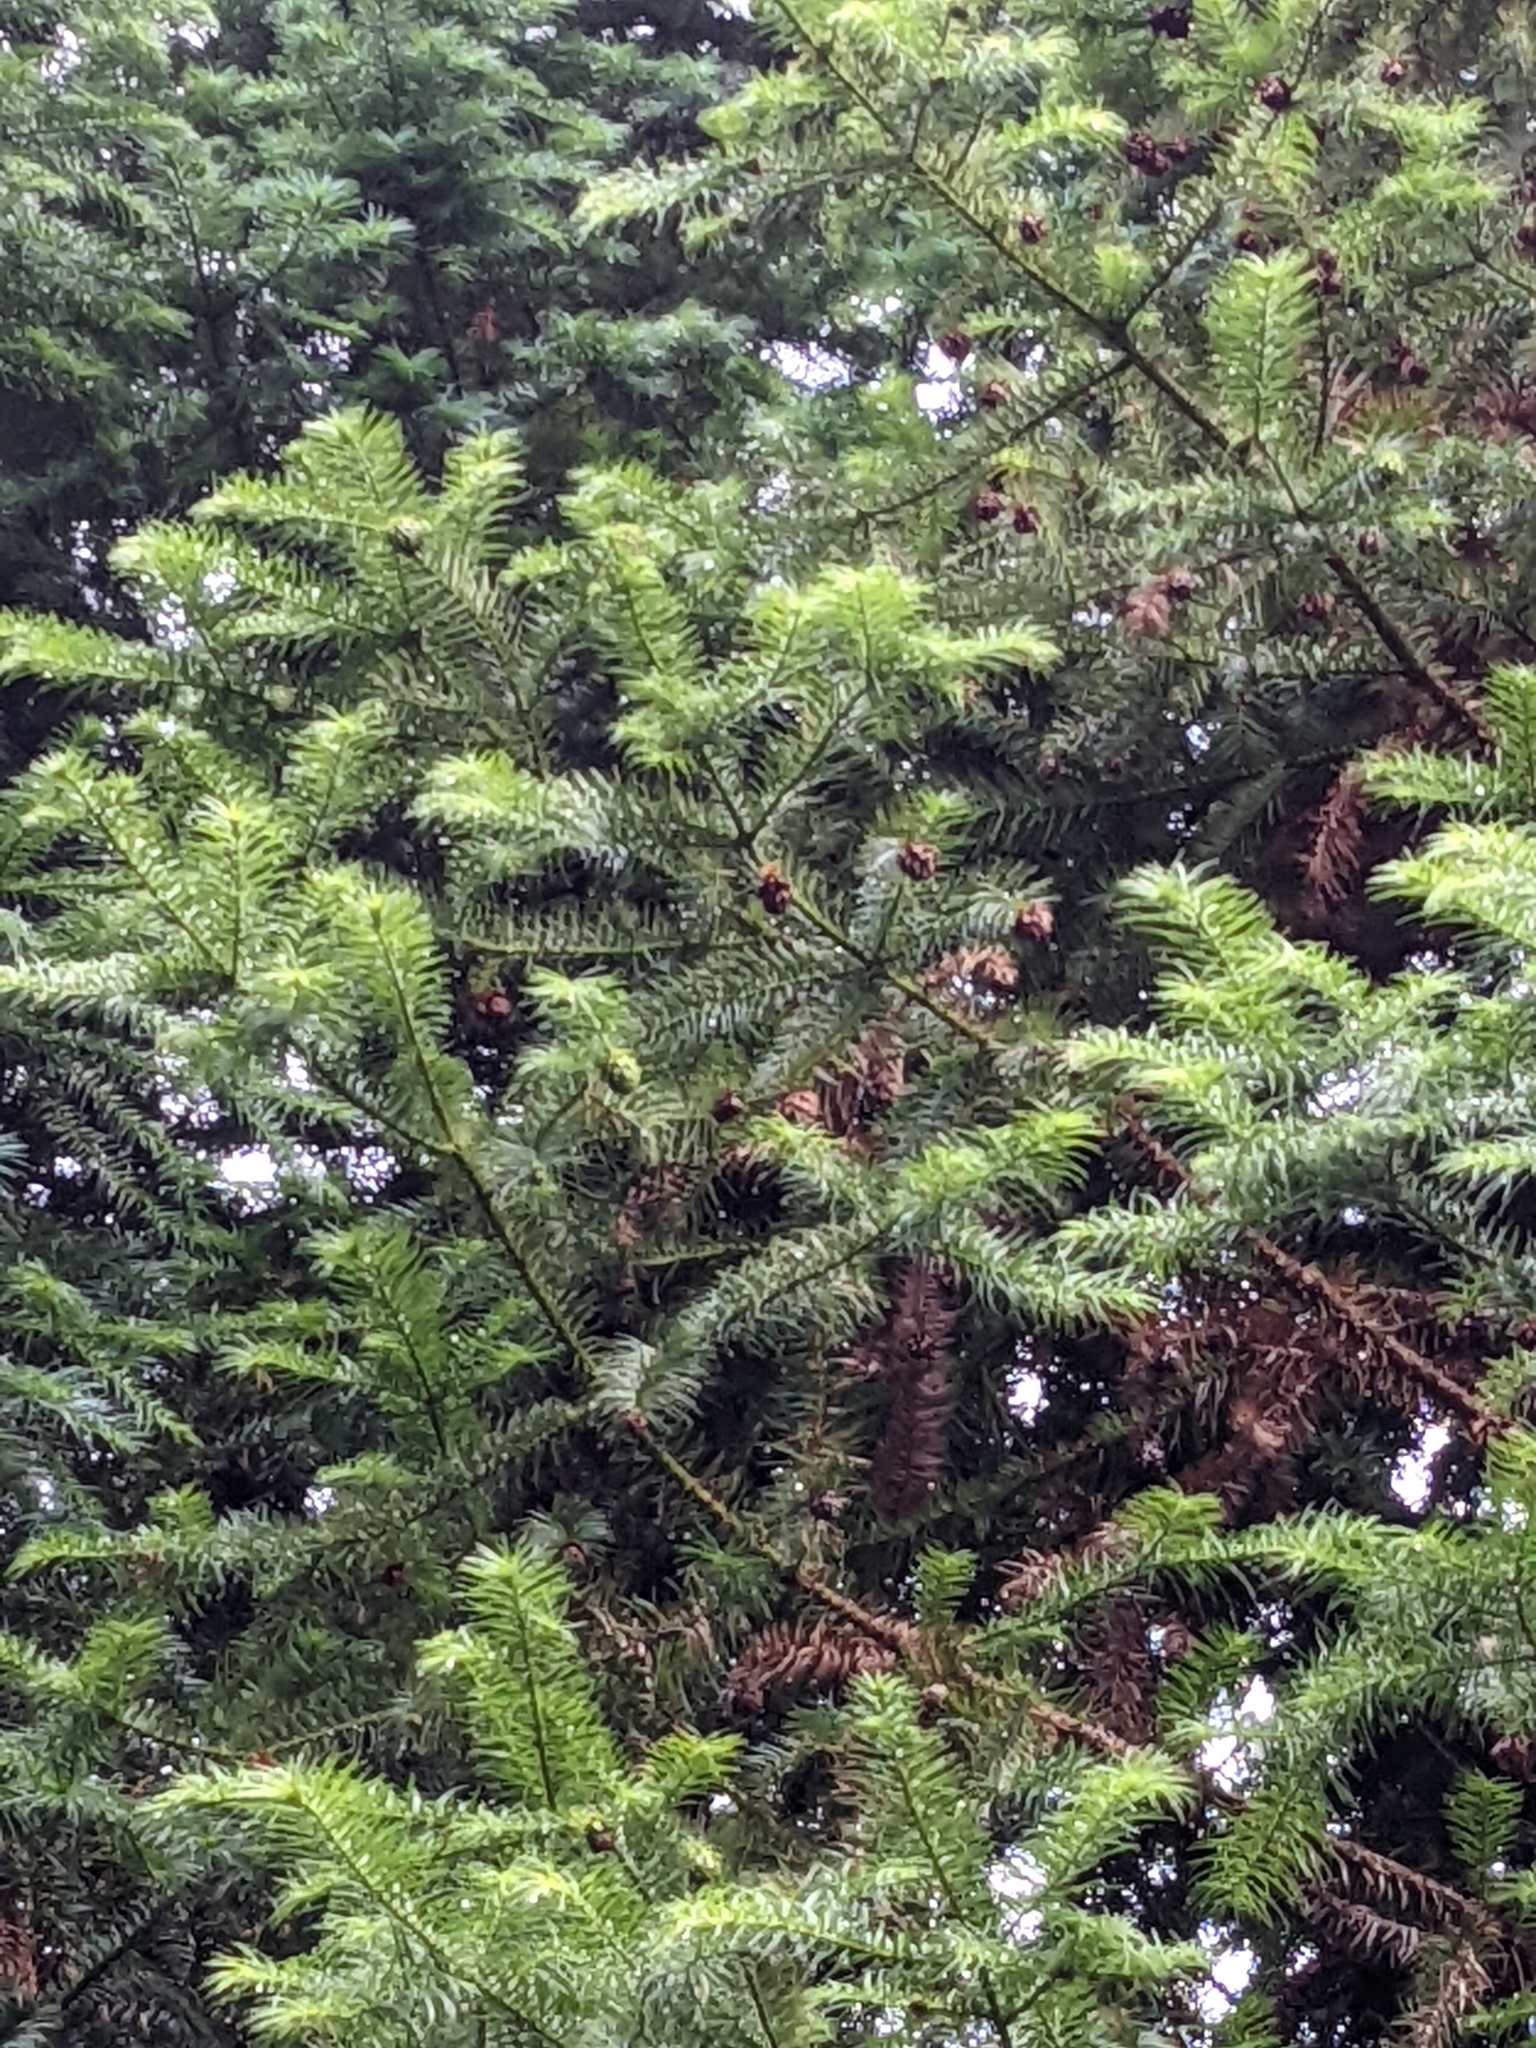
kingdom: Plantae
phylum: Tracheophyta
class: Pinopsida
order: Pinales
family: Cupressaceae
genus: Cunninghamia
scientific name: Cunninghamia konishii
